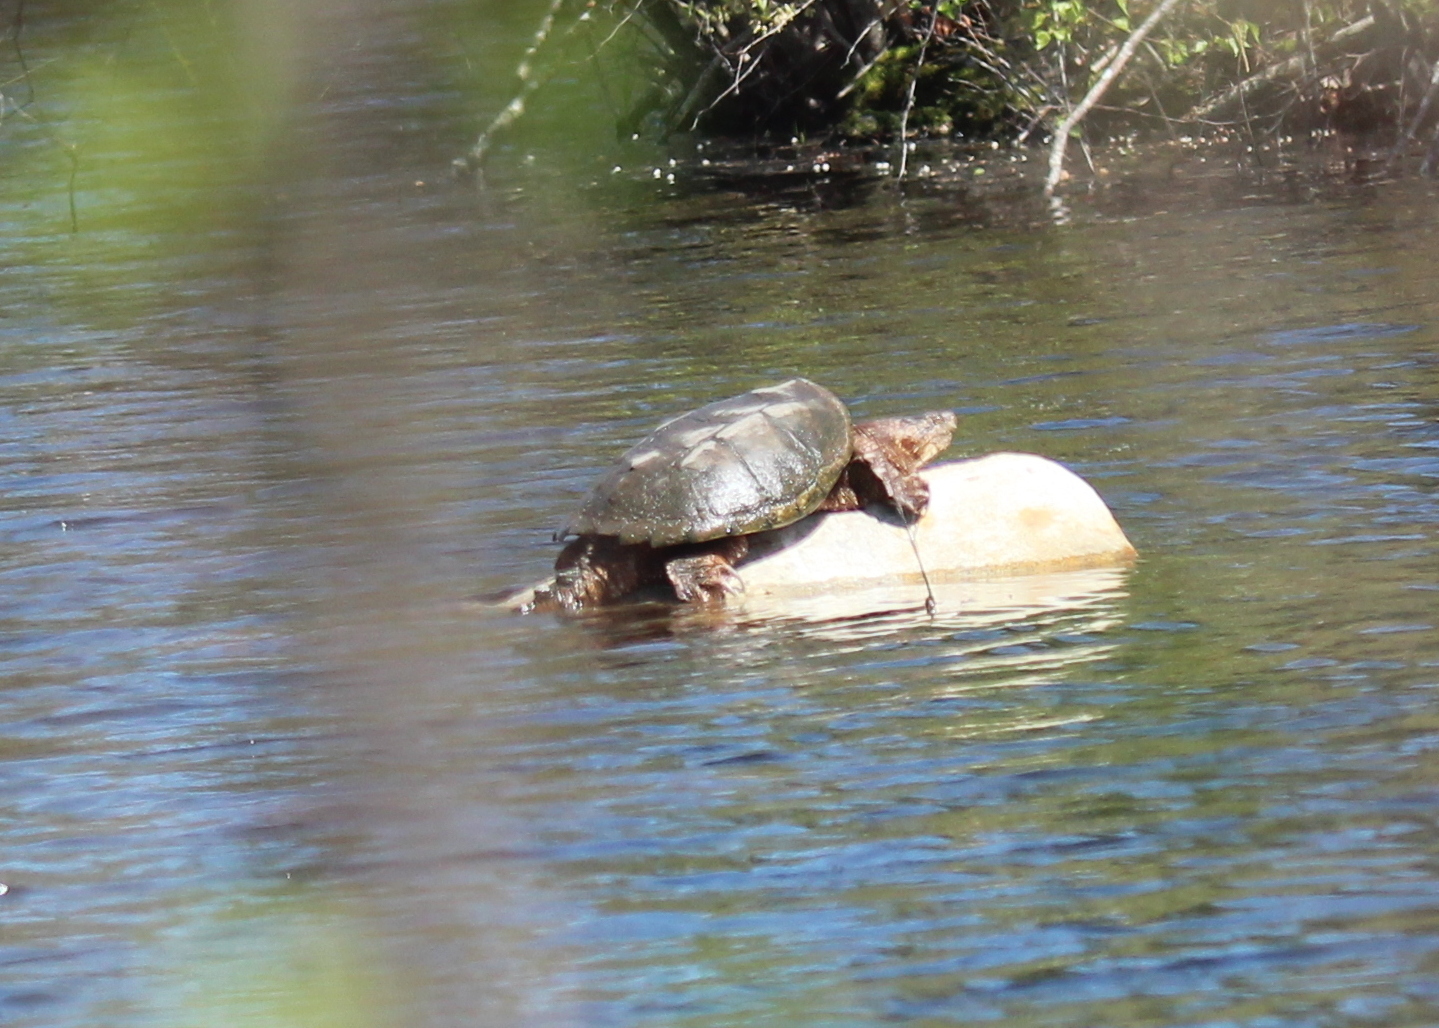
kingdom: Animalia
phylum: Chordata
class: Testudines
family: Chelydridae
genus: Chelydra
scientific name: Chelydra serpentina
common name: Common snapping turtle
